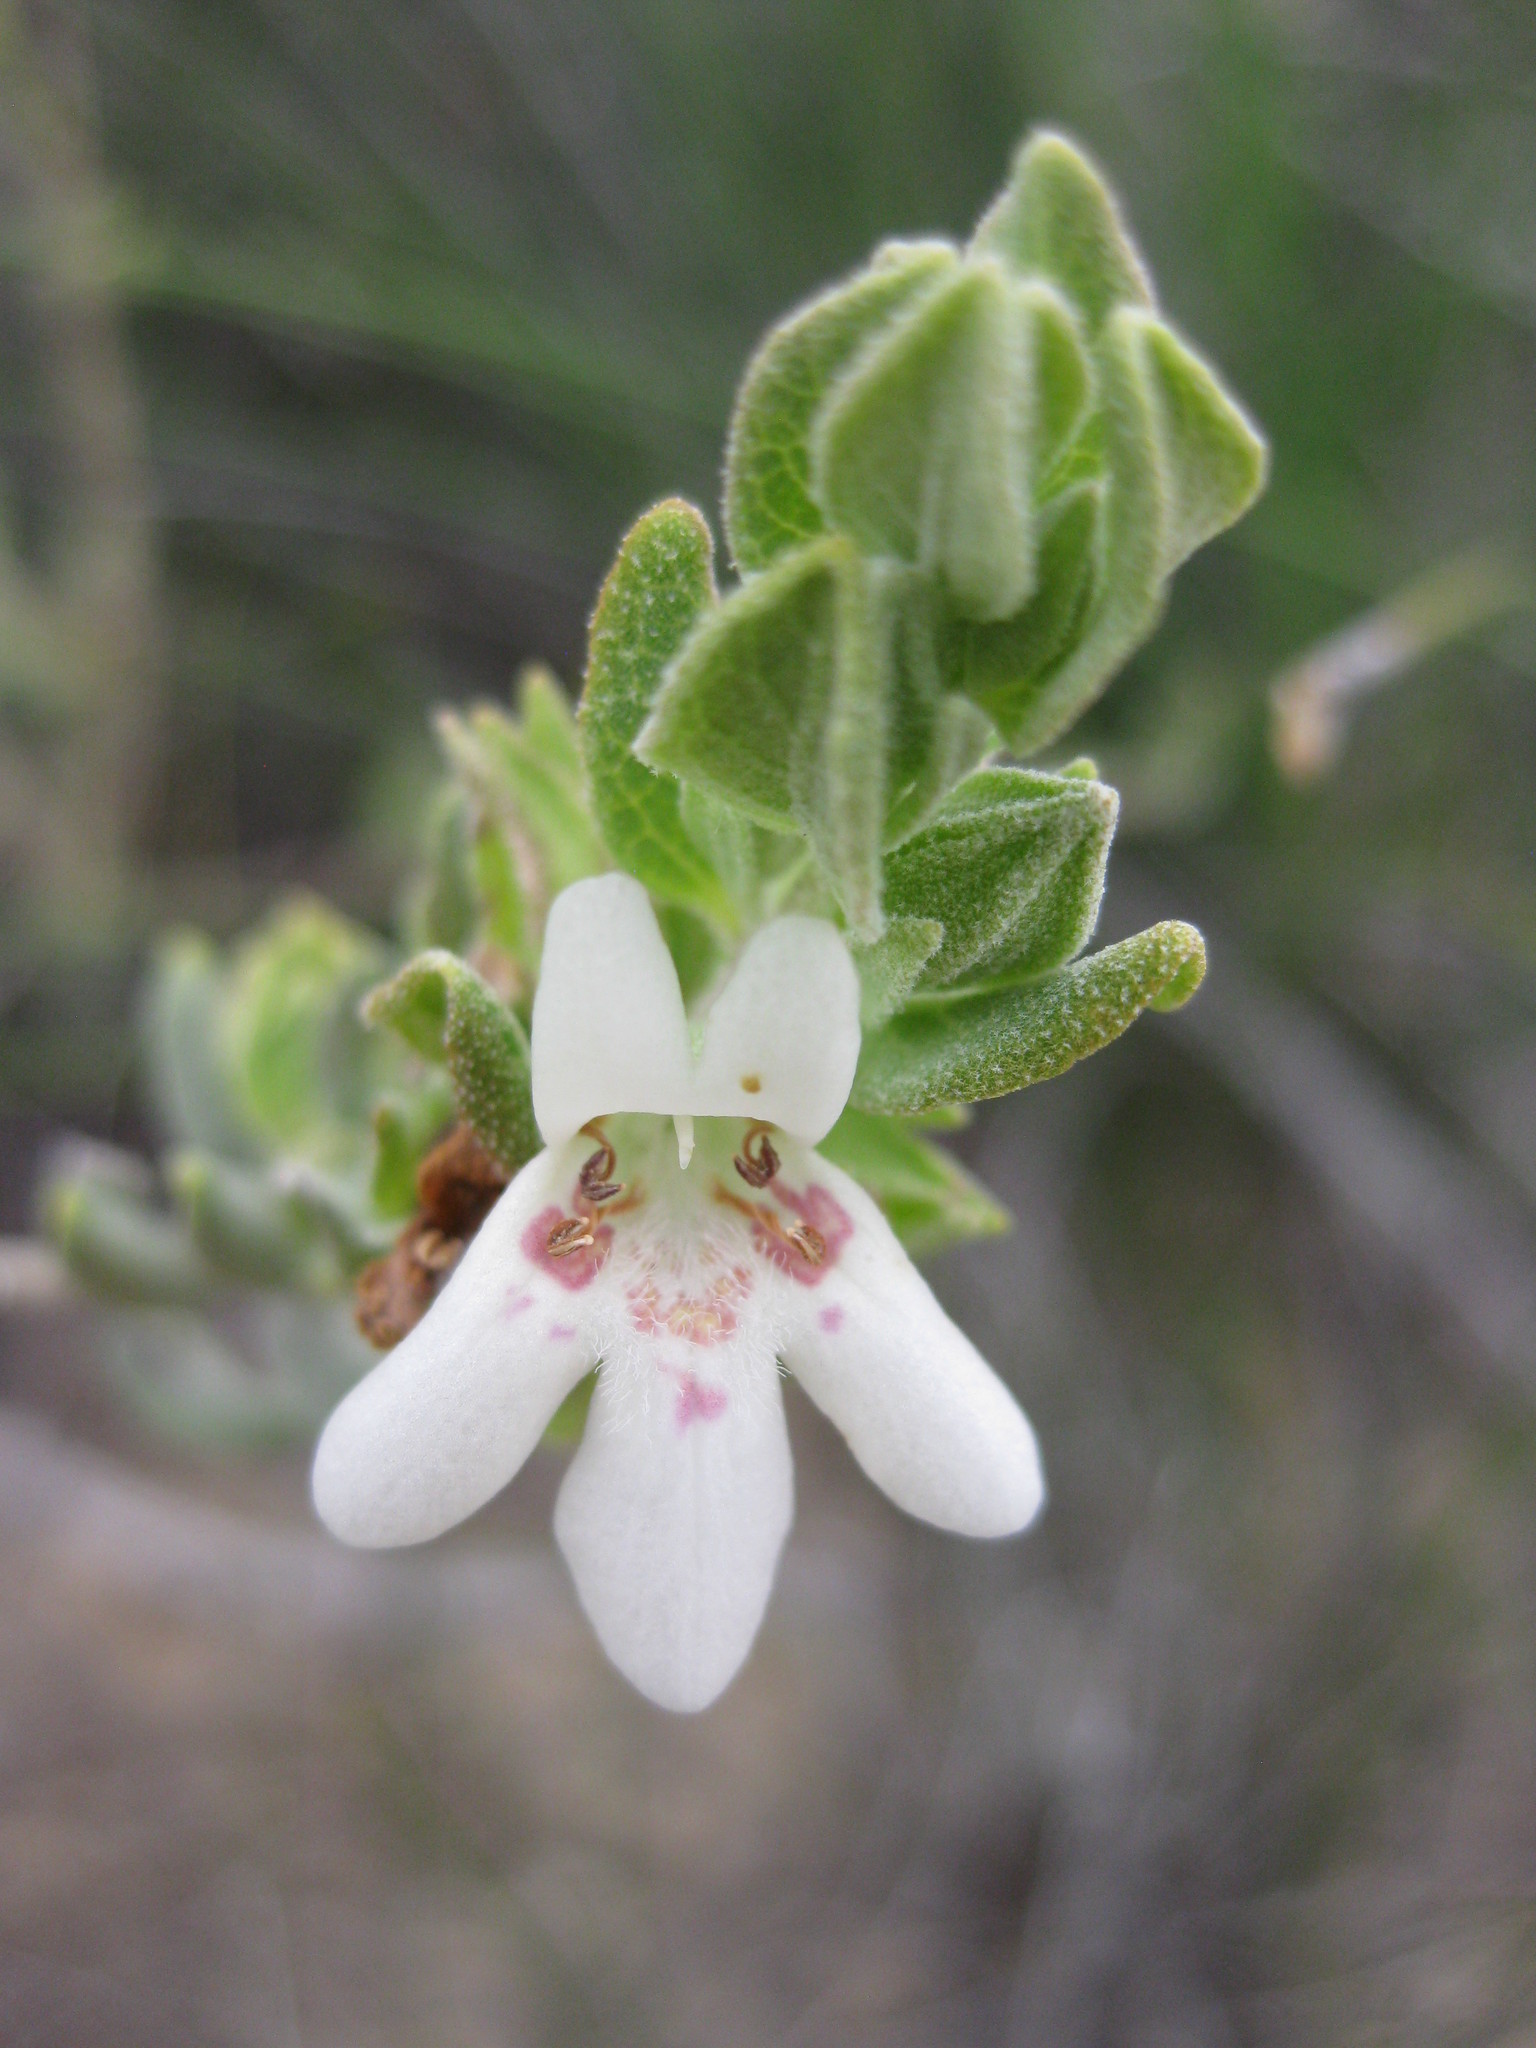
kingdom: Plantae
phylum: Tracheophyta
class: Magnoliopsida
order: Lamiales
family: Lamiaceae
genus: Pityrodia
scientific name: Pityrodia hemigenioides
